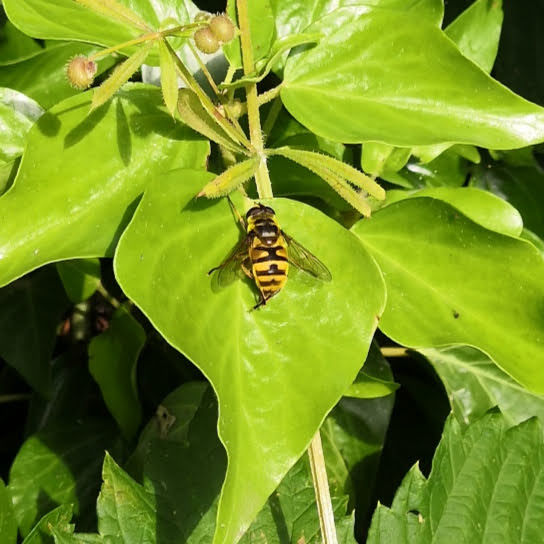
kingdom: Animalia
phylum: Arthropoda
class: Insecta
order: Diptera
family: Syrphidae
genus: Myathropa
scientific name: Myathropa florea
